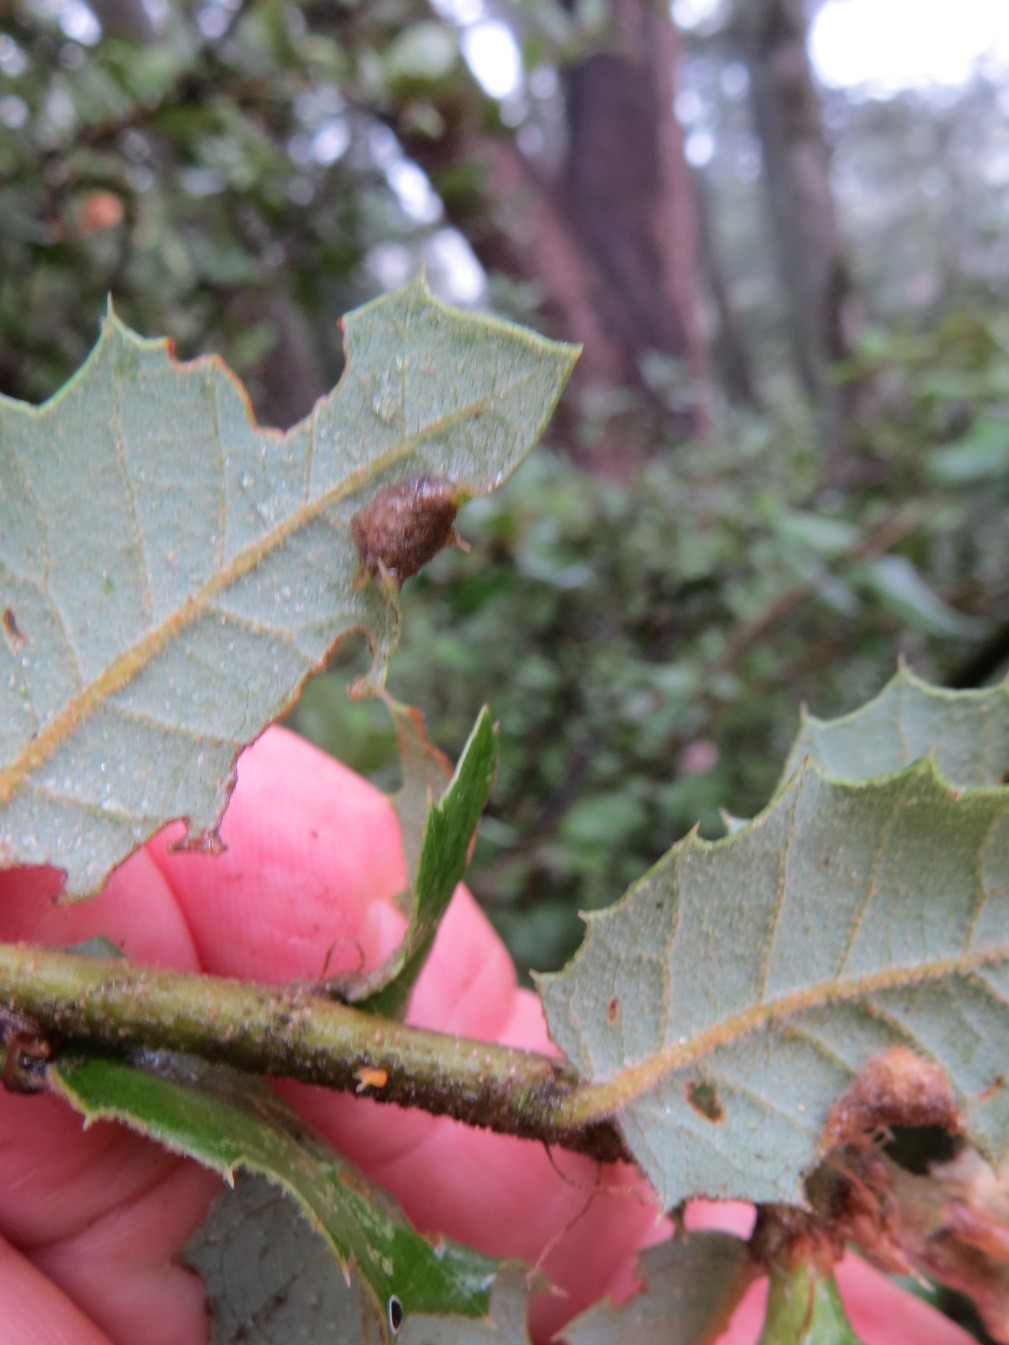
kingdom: Animalia
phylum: Arthropoda
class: Insecta
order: Diptera
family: Cecidomyiidae
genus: Dasineura
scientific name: Dasineura silvestrii
